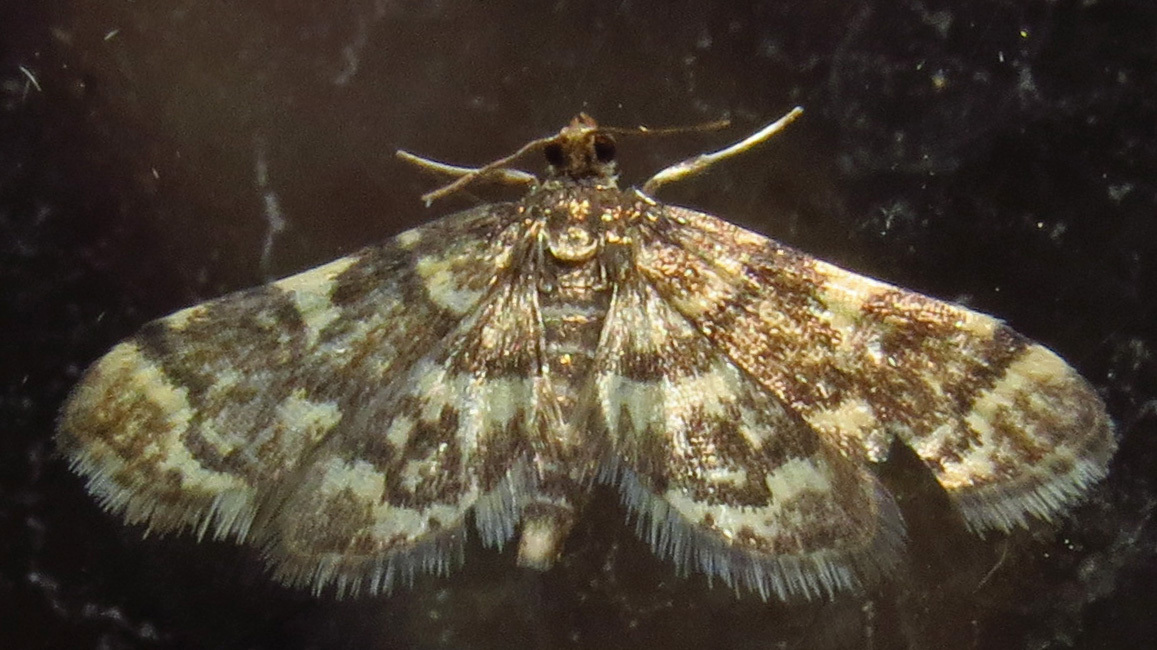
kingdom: Animalia
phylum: Arthropoda
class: Insecta
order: Lepidoptera
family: Crambidae
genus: Anageshna
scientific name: Anageshna primordialis
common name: Yellow-spotted webworm moth
